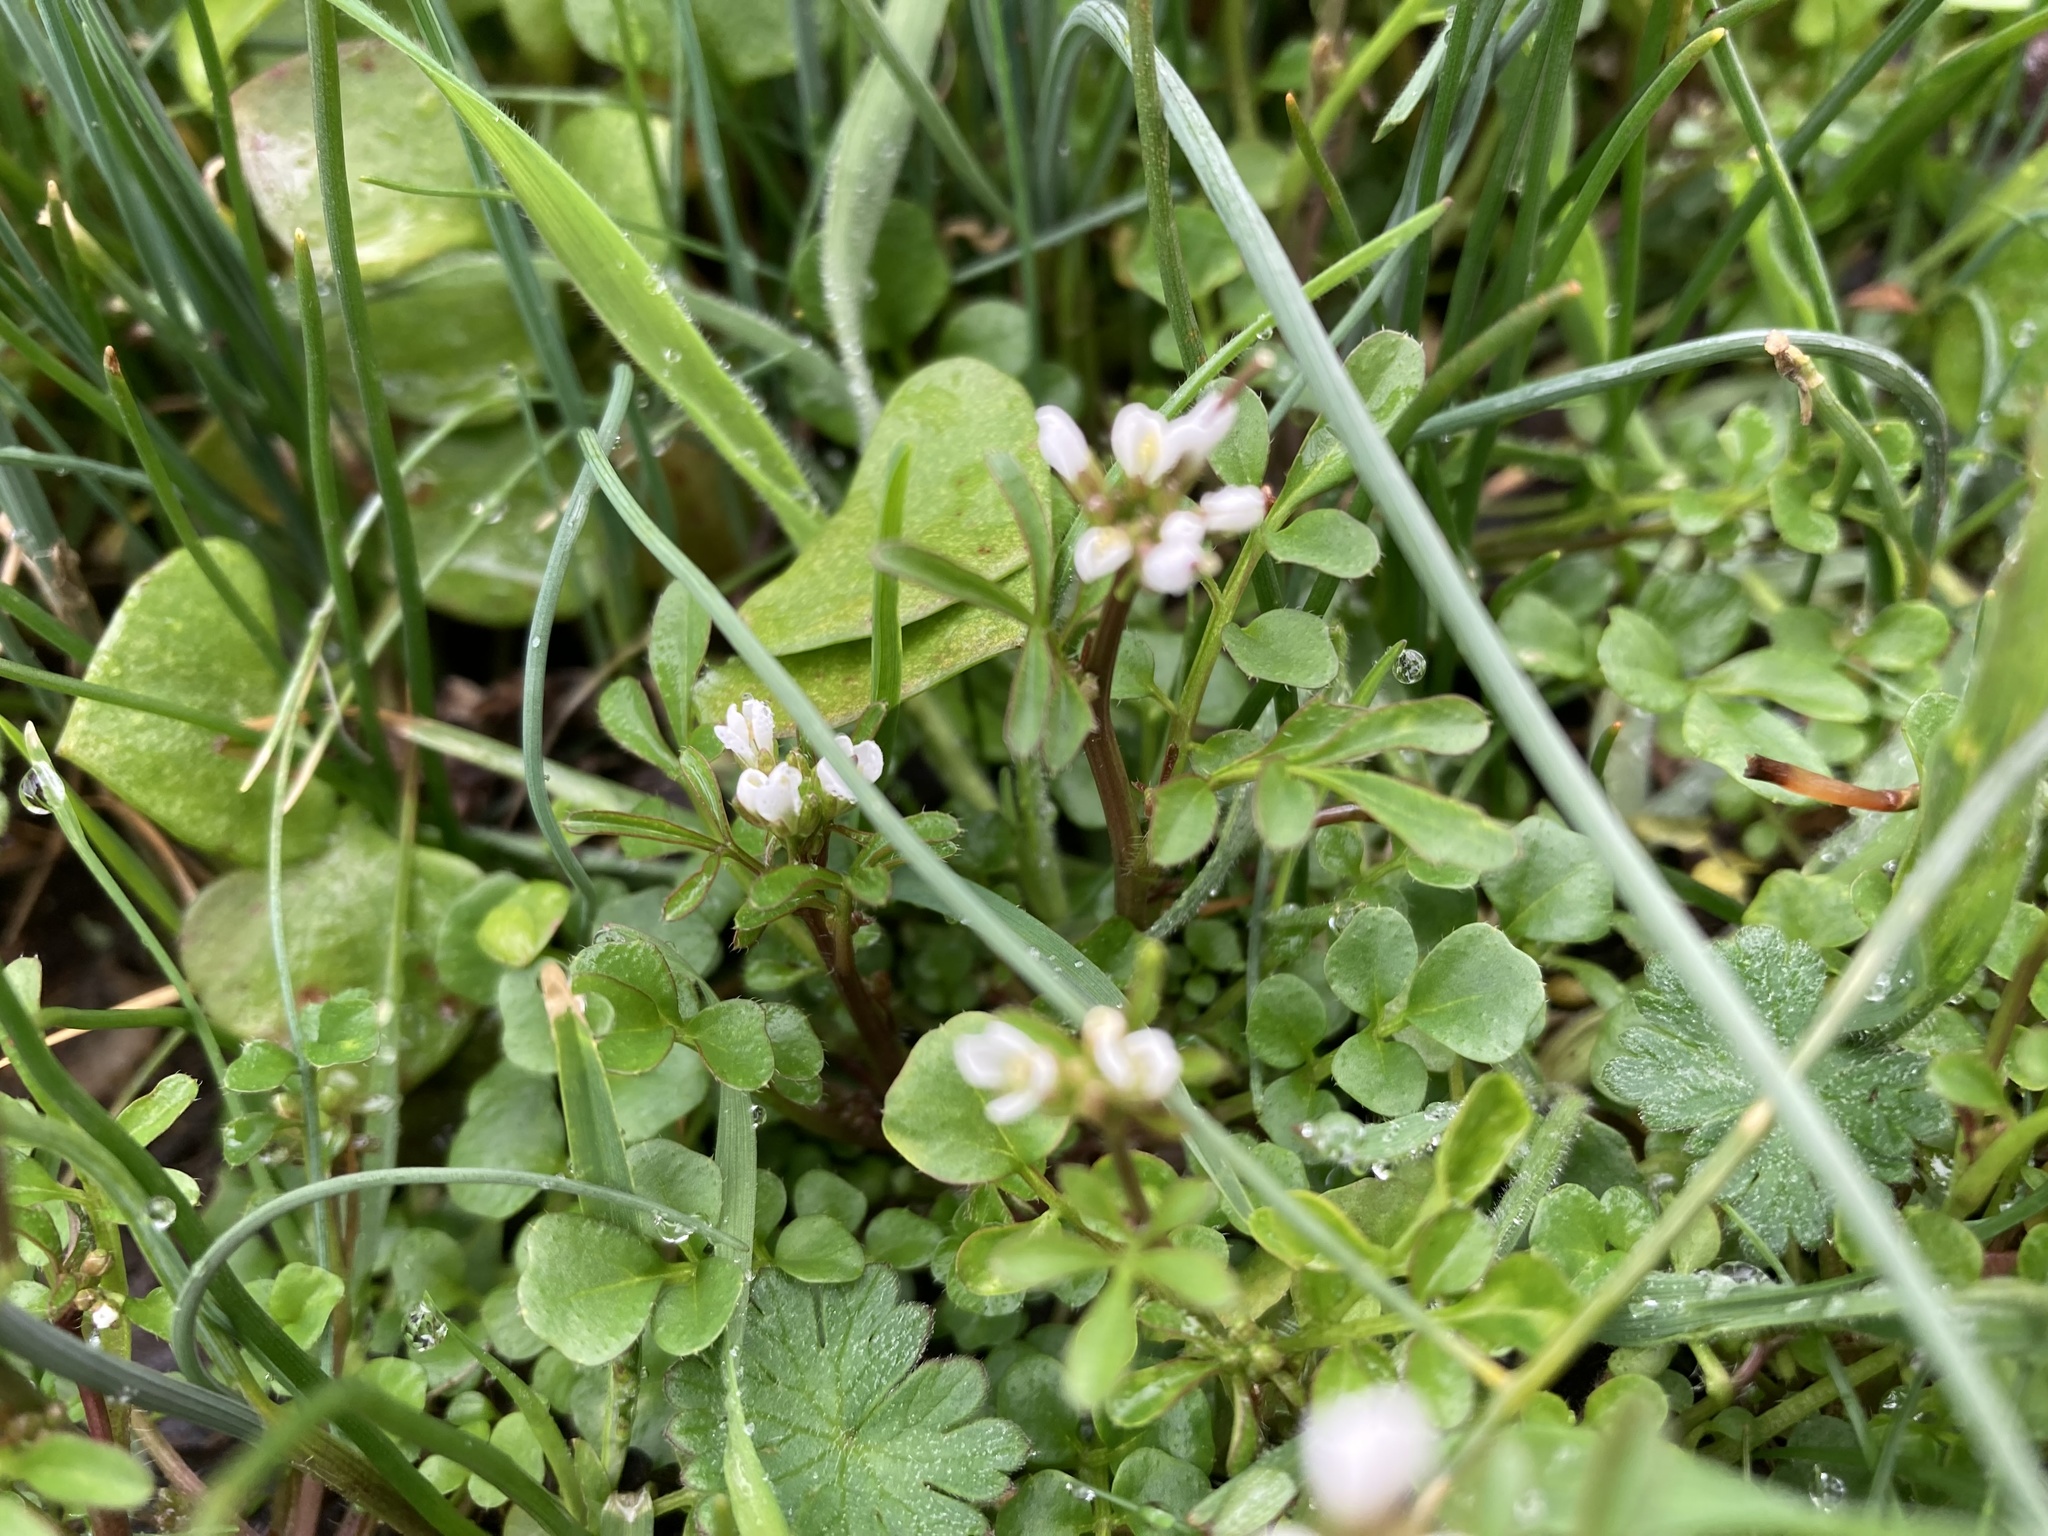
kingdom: Plantae
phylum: Tracheophyta
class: Magnoliopsida
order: Brassicales
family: Brassicaceae
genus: Cardamine
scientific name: Cardamine hirsuta
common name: Hairy bittercress
